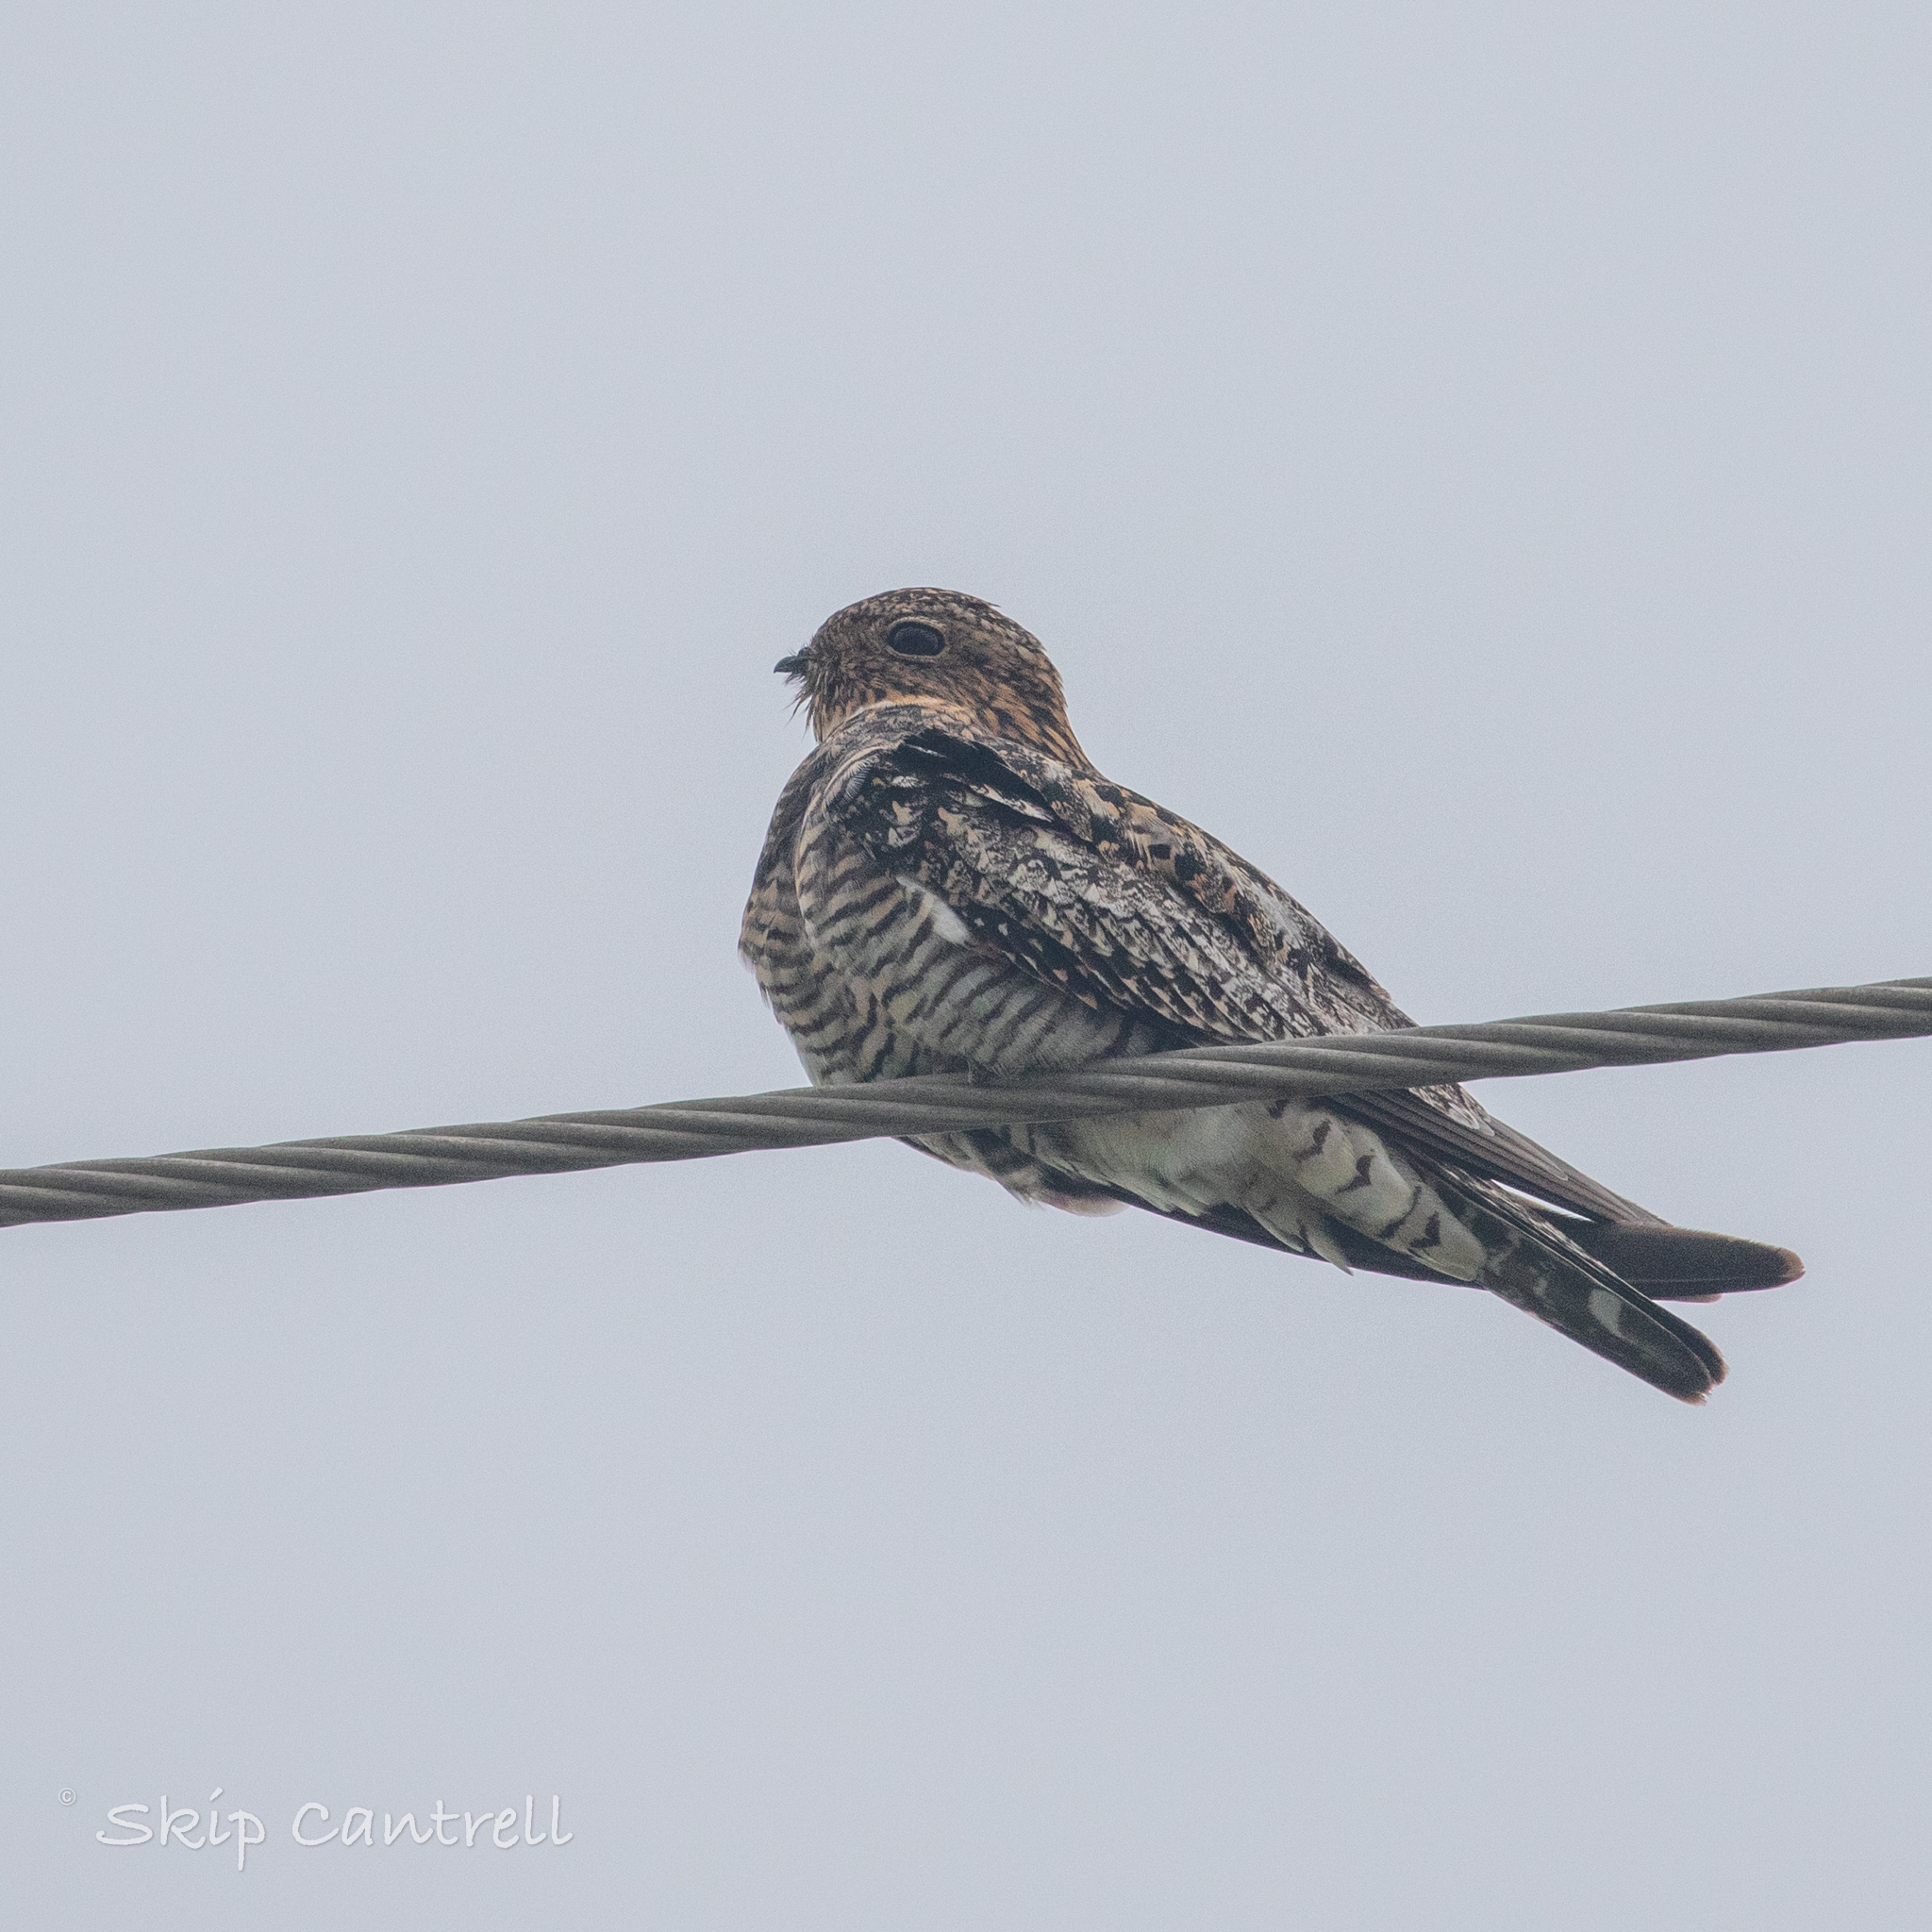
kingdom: Animalia
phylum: Chordata
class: Aves
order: Caprimulgiformes
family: Caprimulgidae
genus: Chordeiles
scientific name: Chordeiles minor
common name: Common nighthawk
